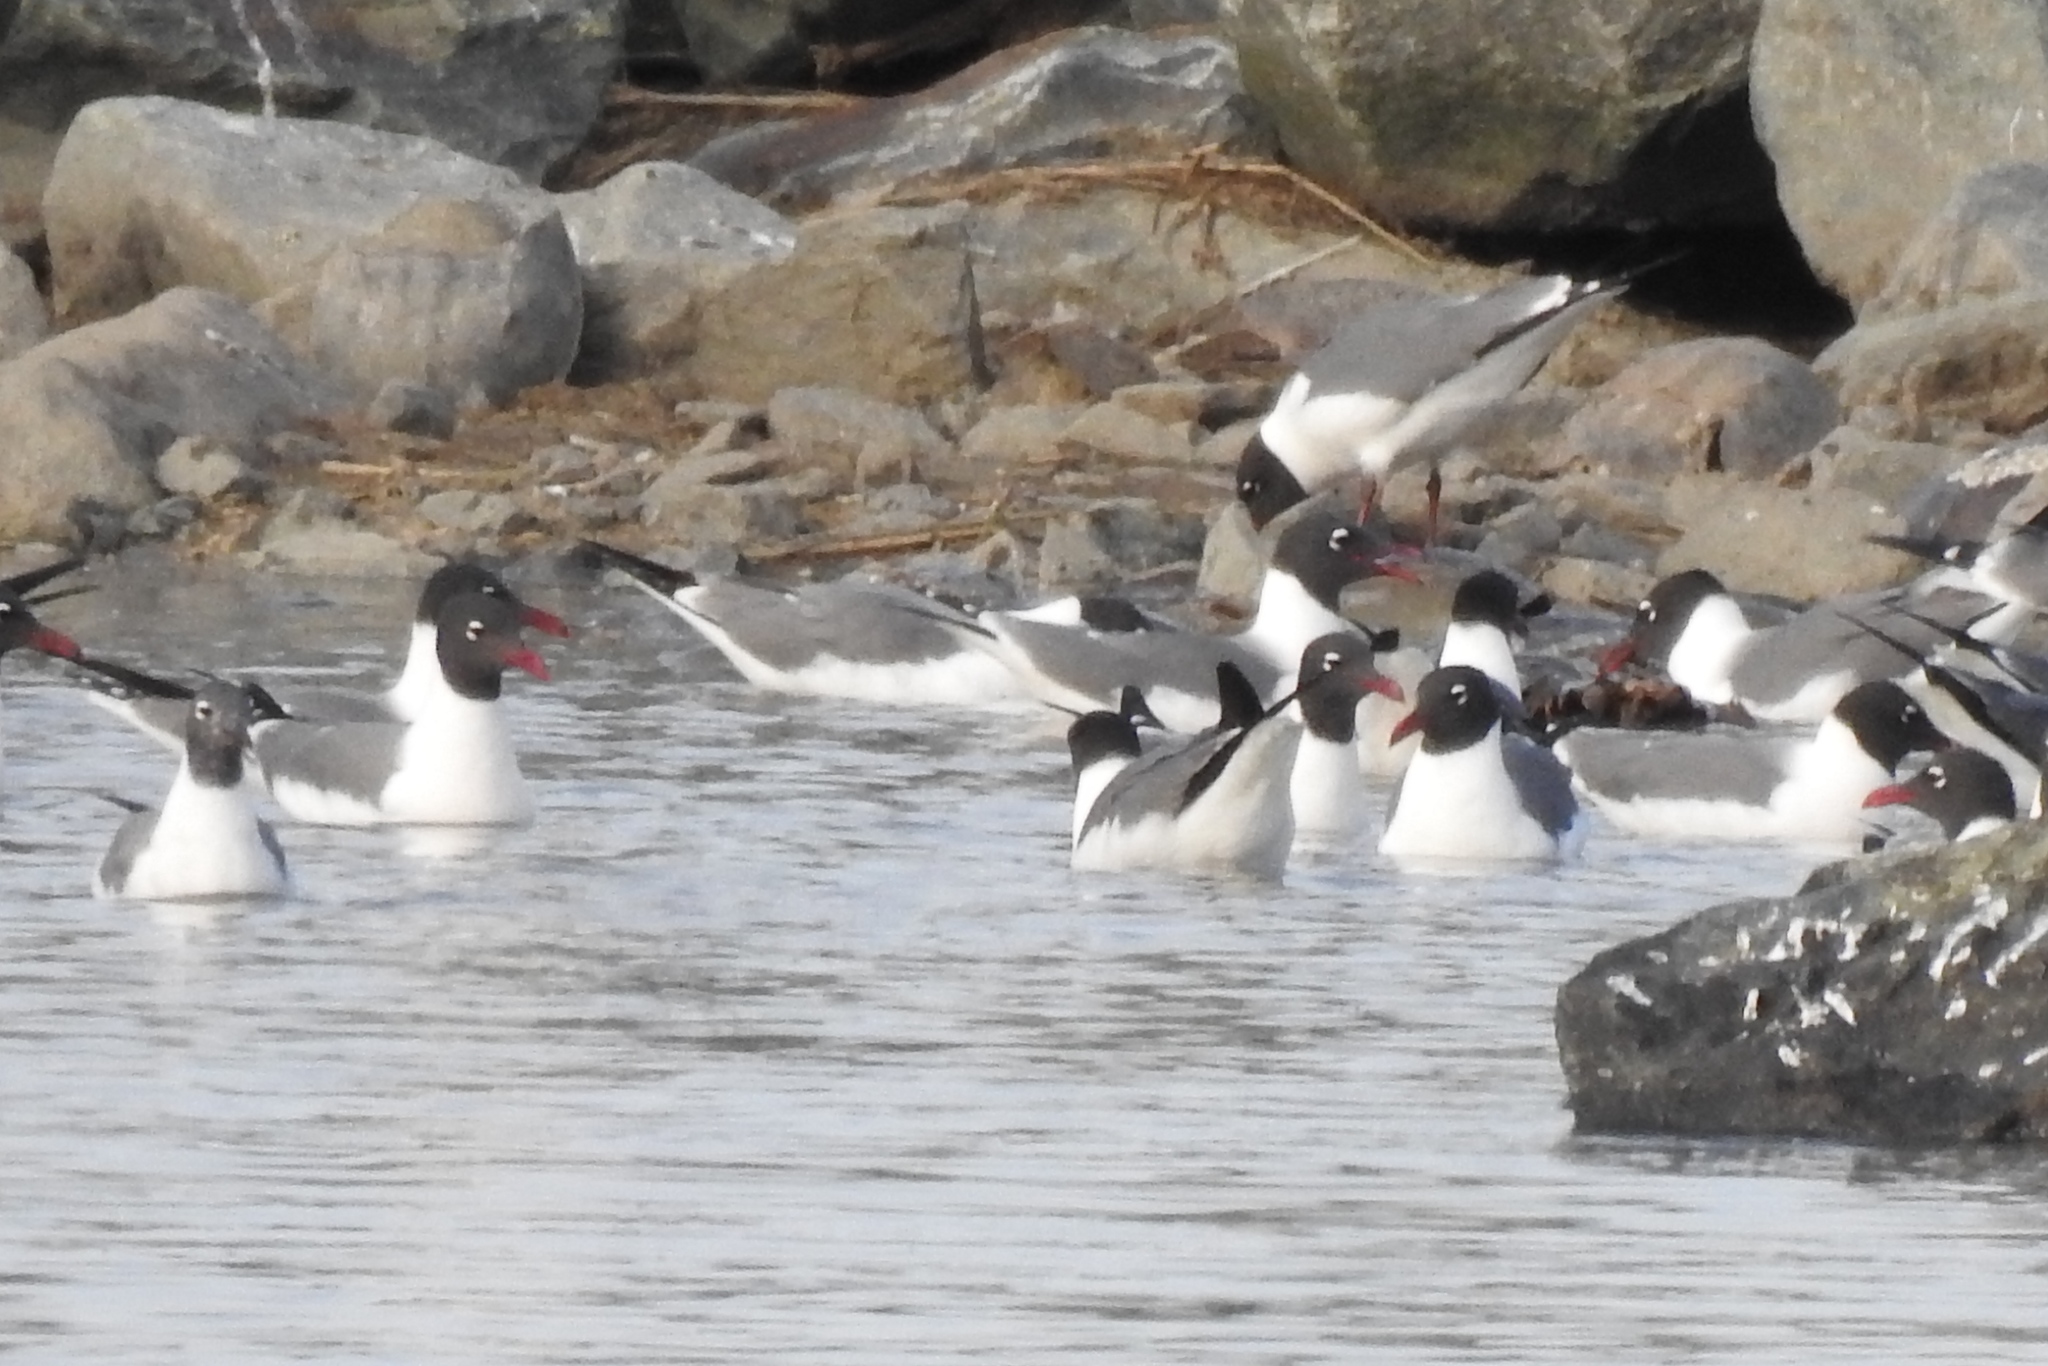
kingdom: Animalia
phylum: Chordata
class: Aves
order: Charadriiformes
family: Laridae
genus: Leucophaeus
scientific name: Leucophaeus atricilla
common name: Laughing gull
